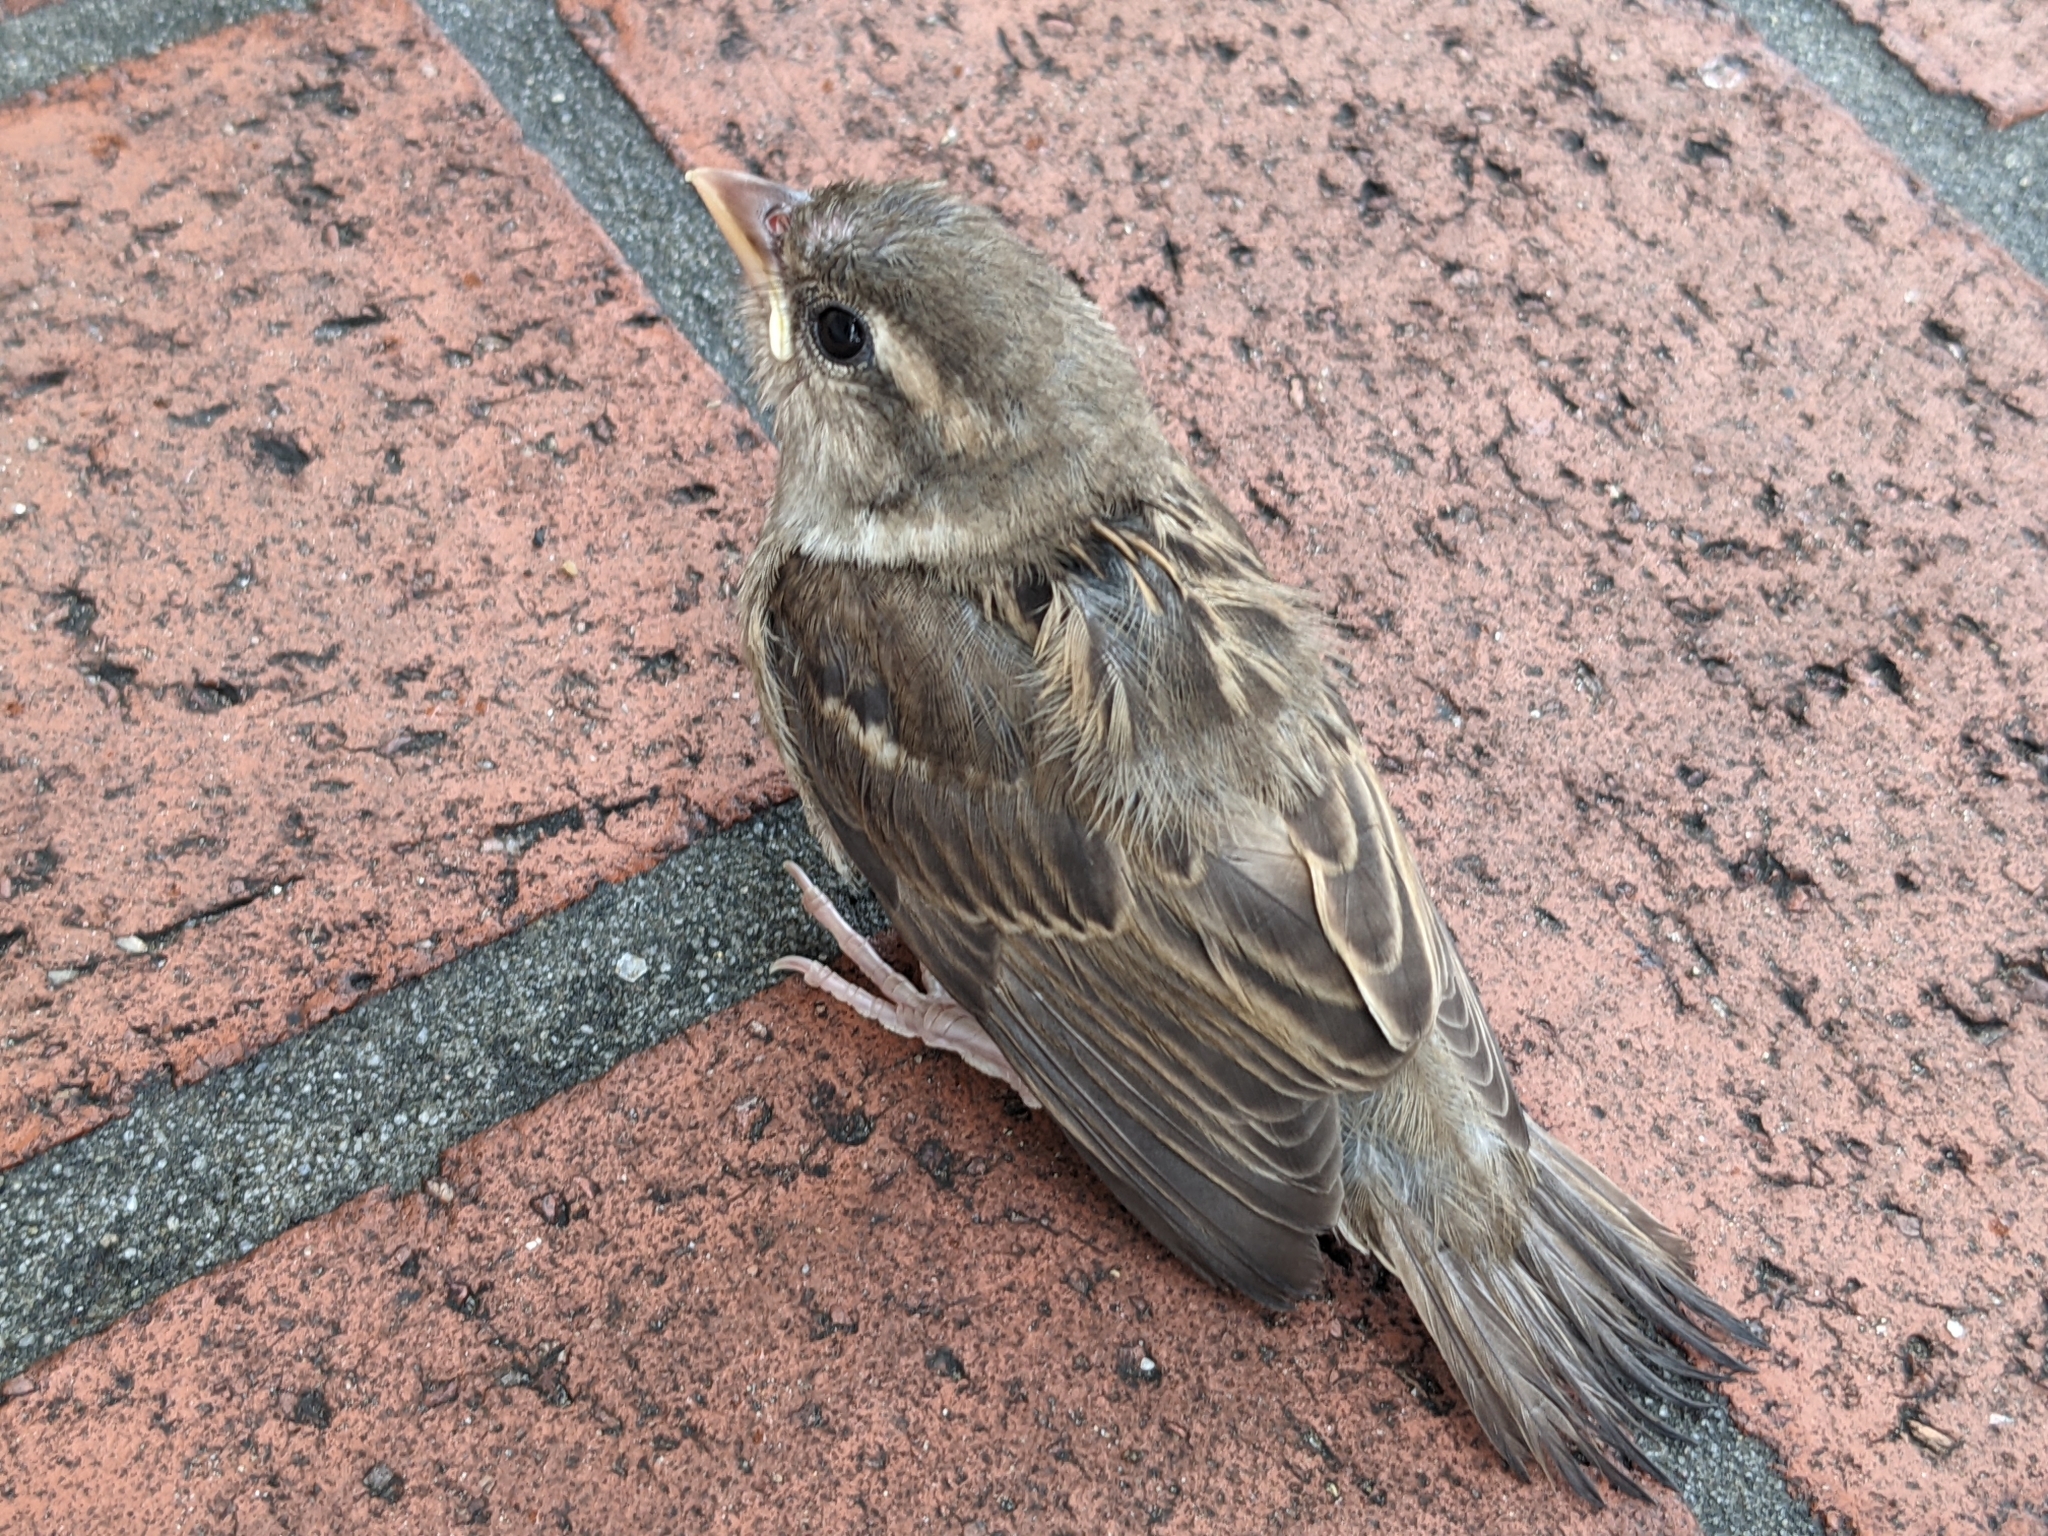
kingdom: Animalia
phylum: Chordata
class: Aves
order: Passeriformes
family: Passeridae
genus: Passer
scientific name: Passer domesticus
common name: House sparrow
